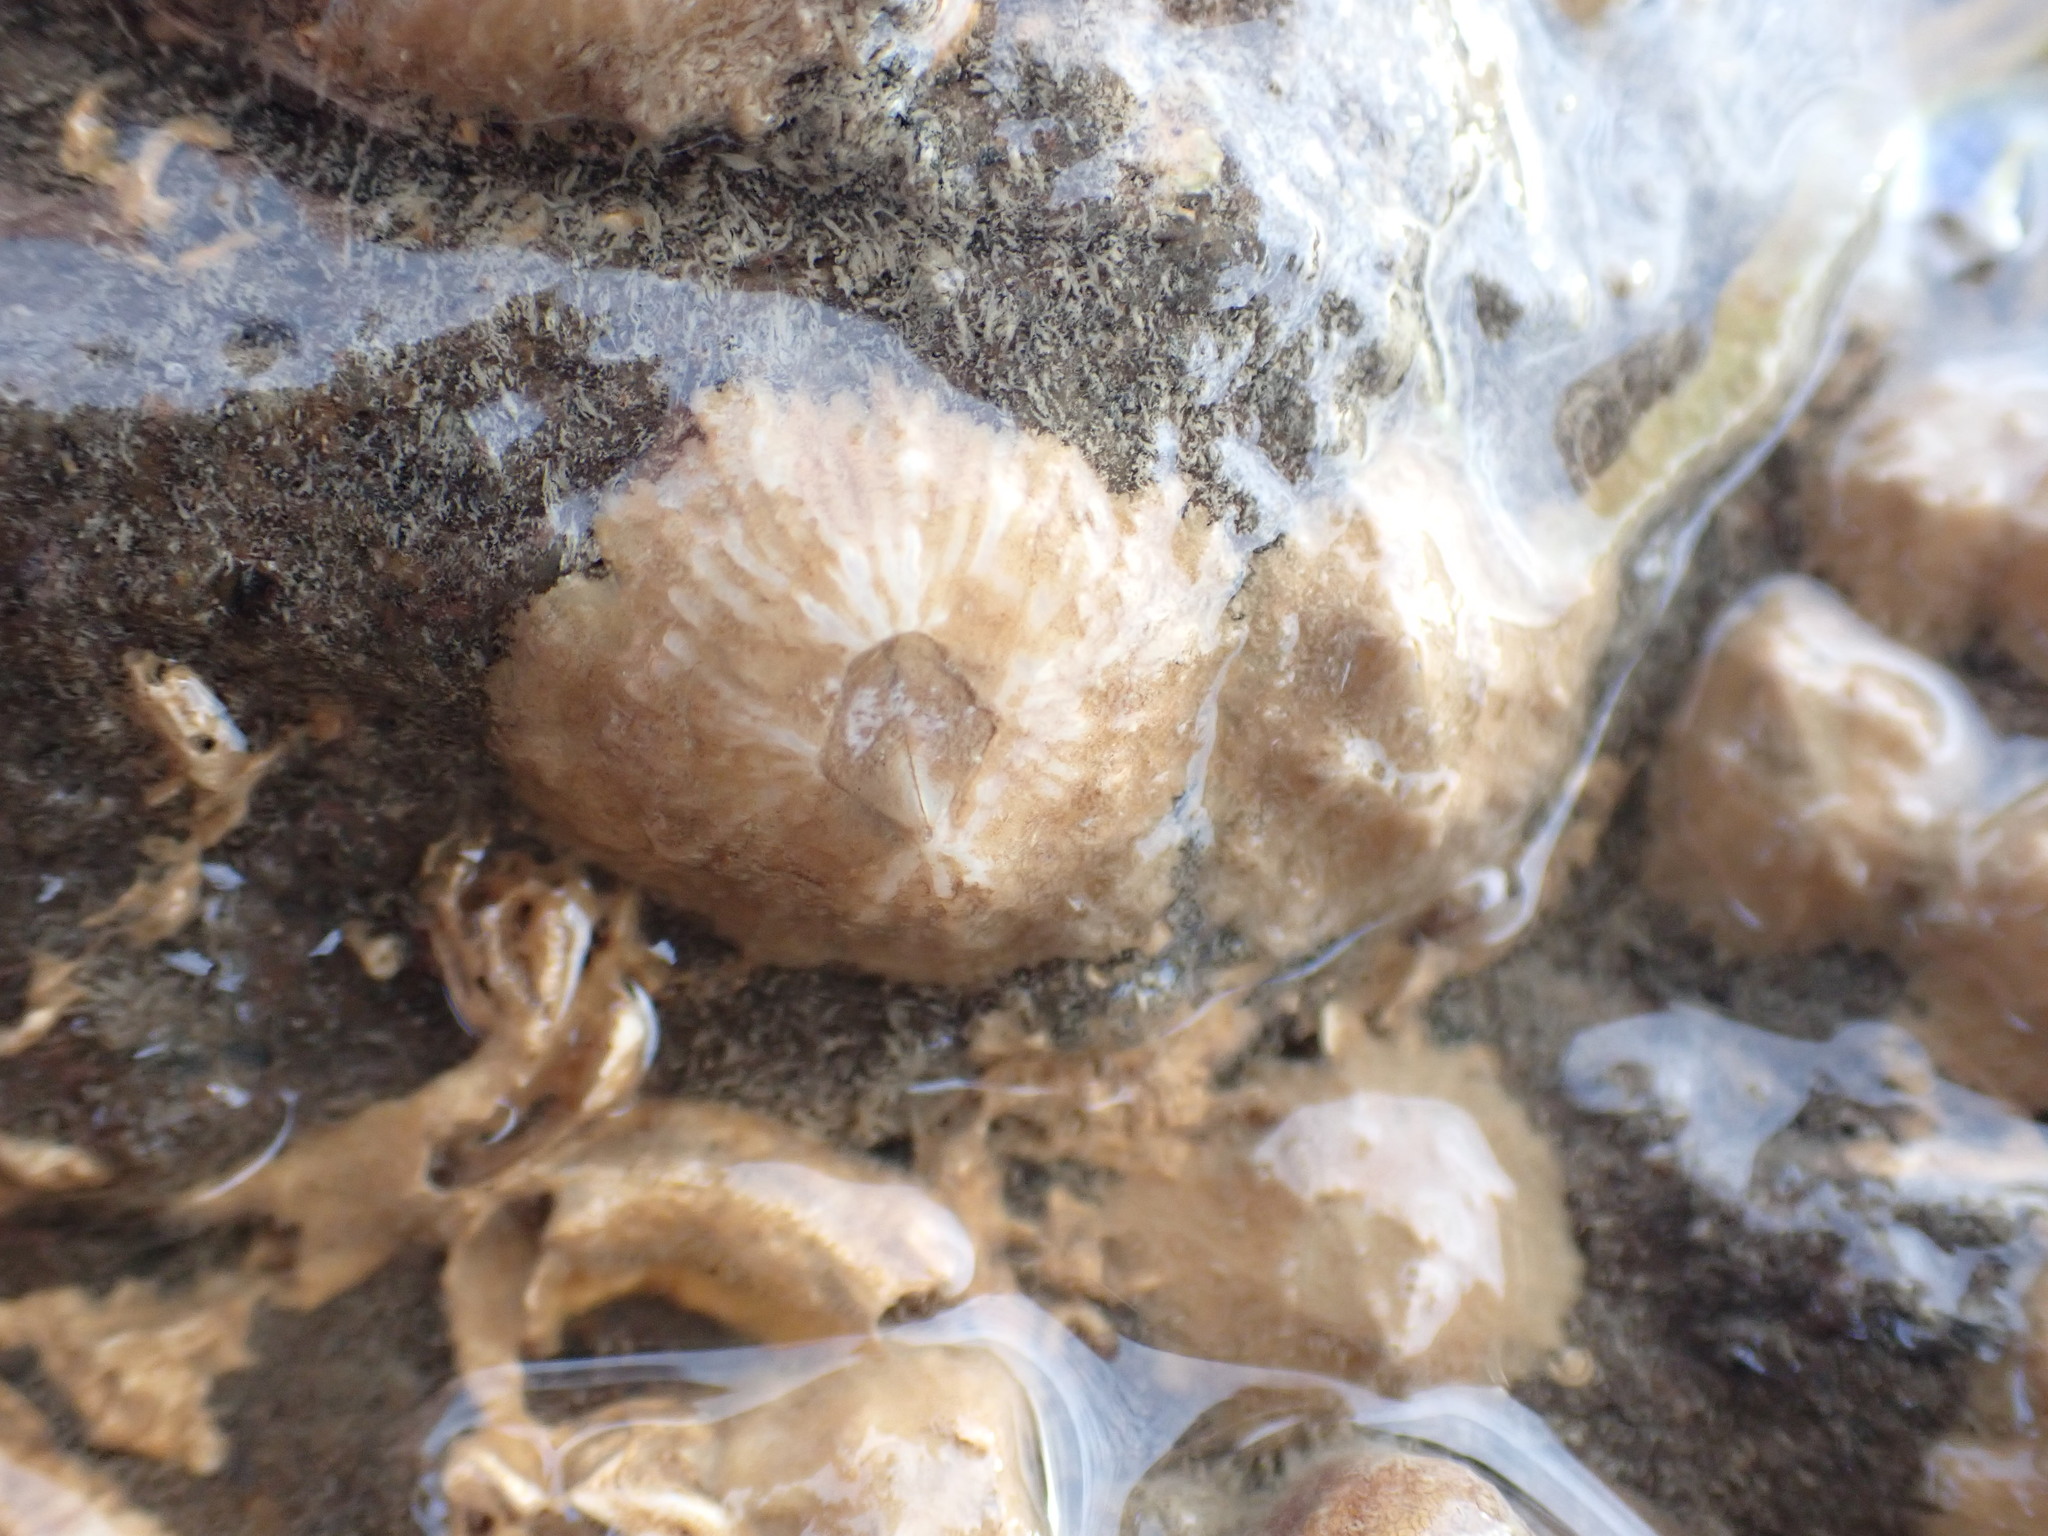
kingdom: Animalia
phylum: Arthropoda
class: Maxillopoda
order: Sessilia
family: Tetraclitidae
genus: Tetraclitella
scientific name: Tetraclitella depressa
